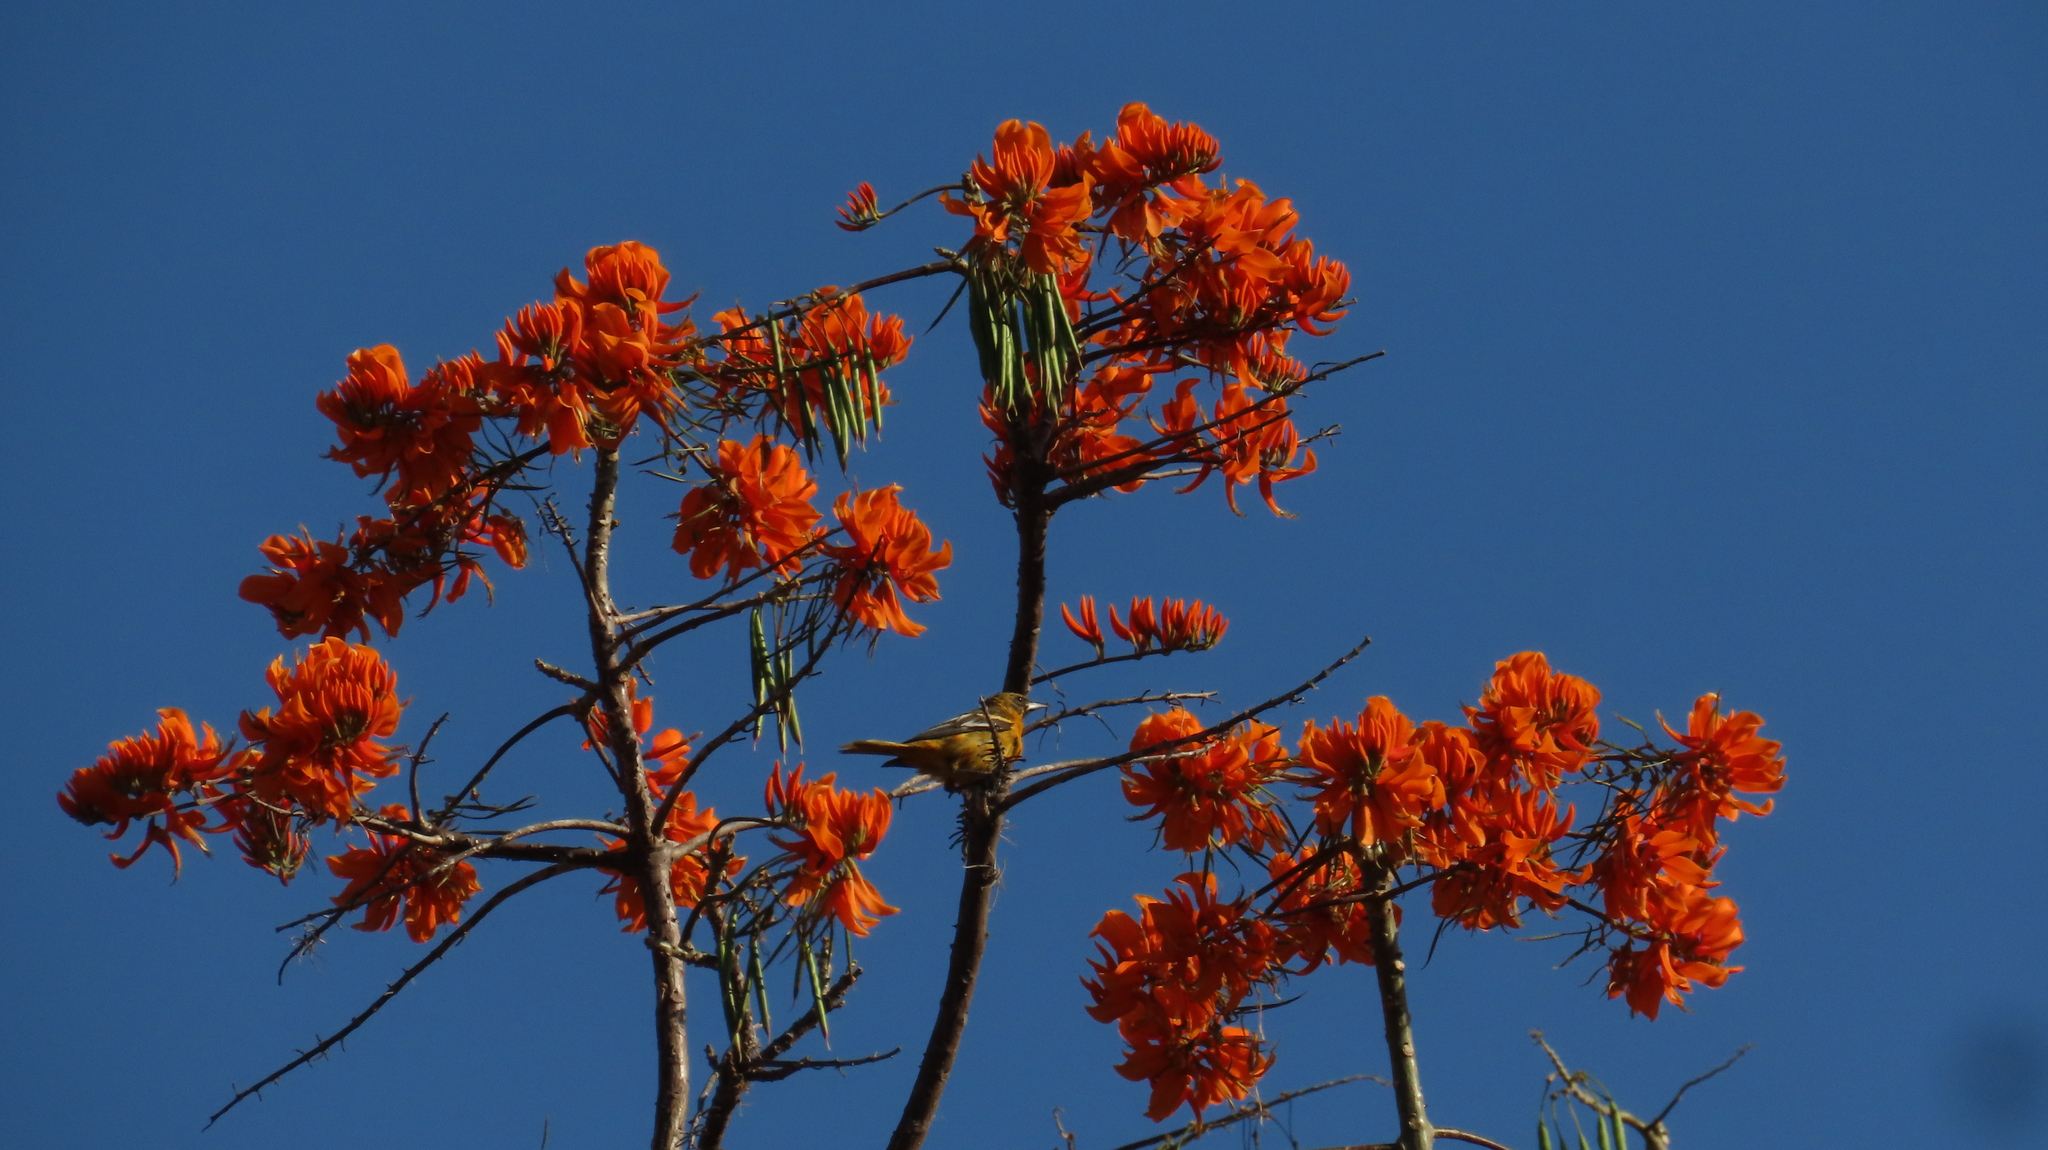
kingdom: Animalia
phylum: Chordata
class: Aves
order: Passeriformes
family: Icteridae
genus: Icterus
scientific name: Icterus galbula
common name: Baltimore oriole
